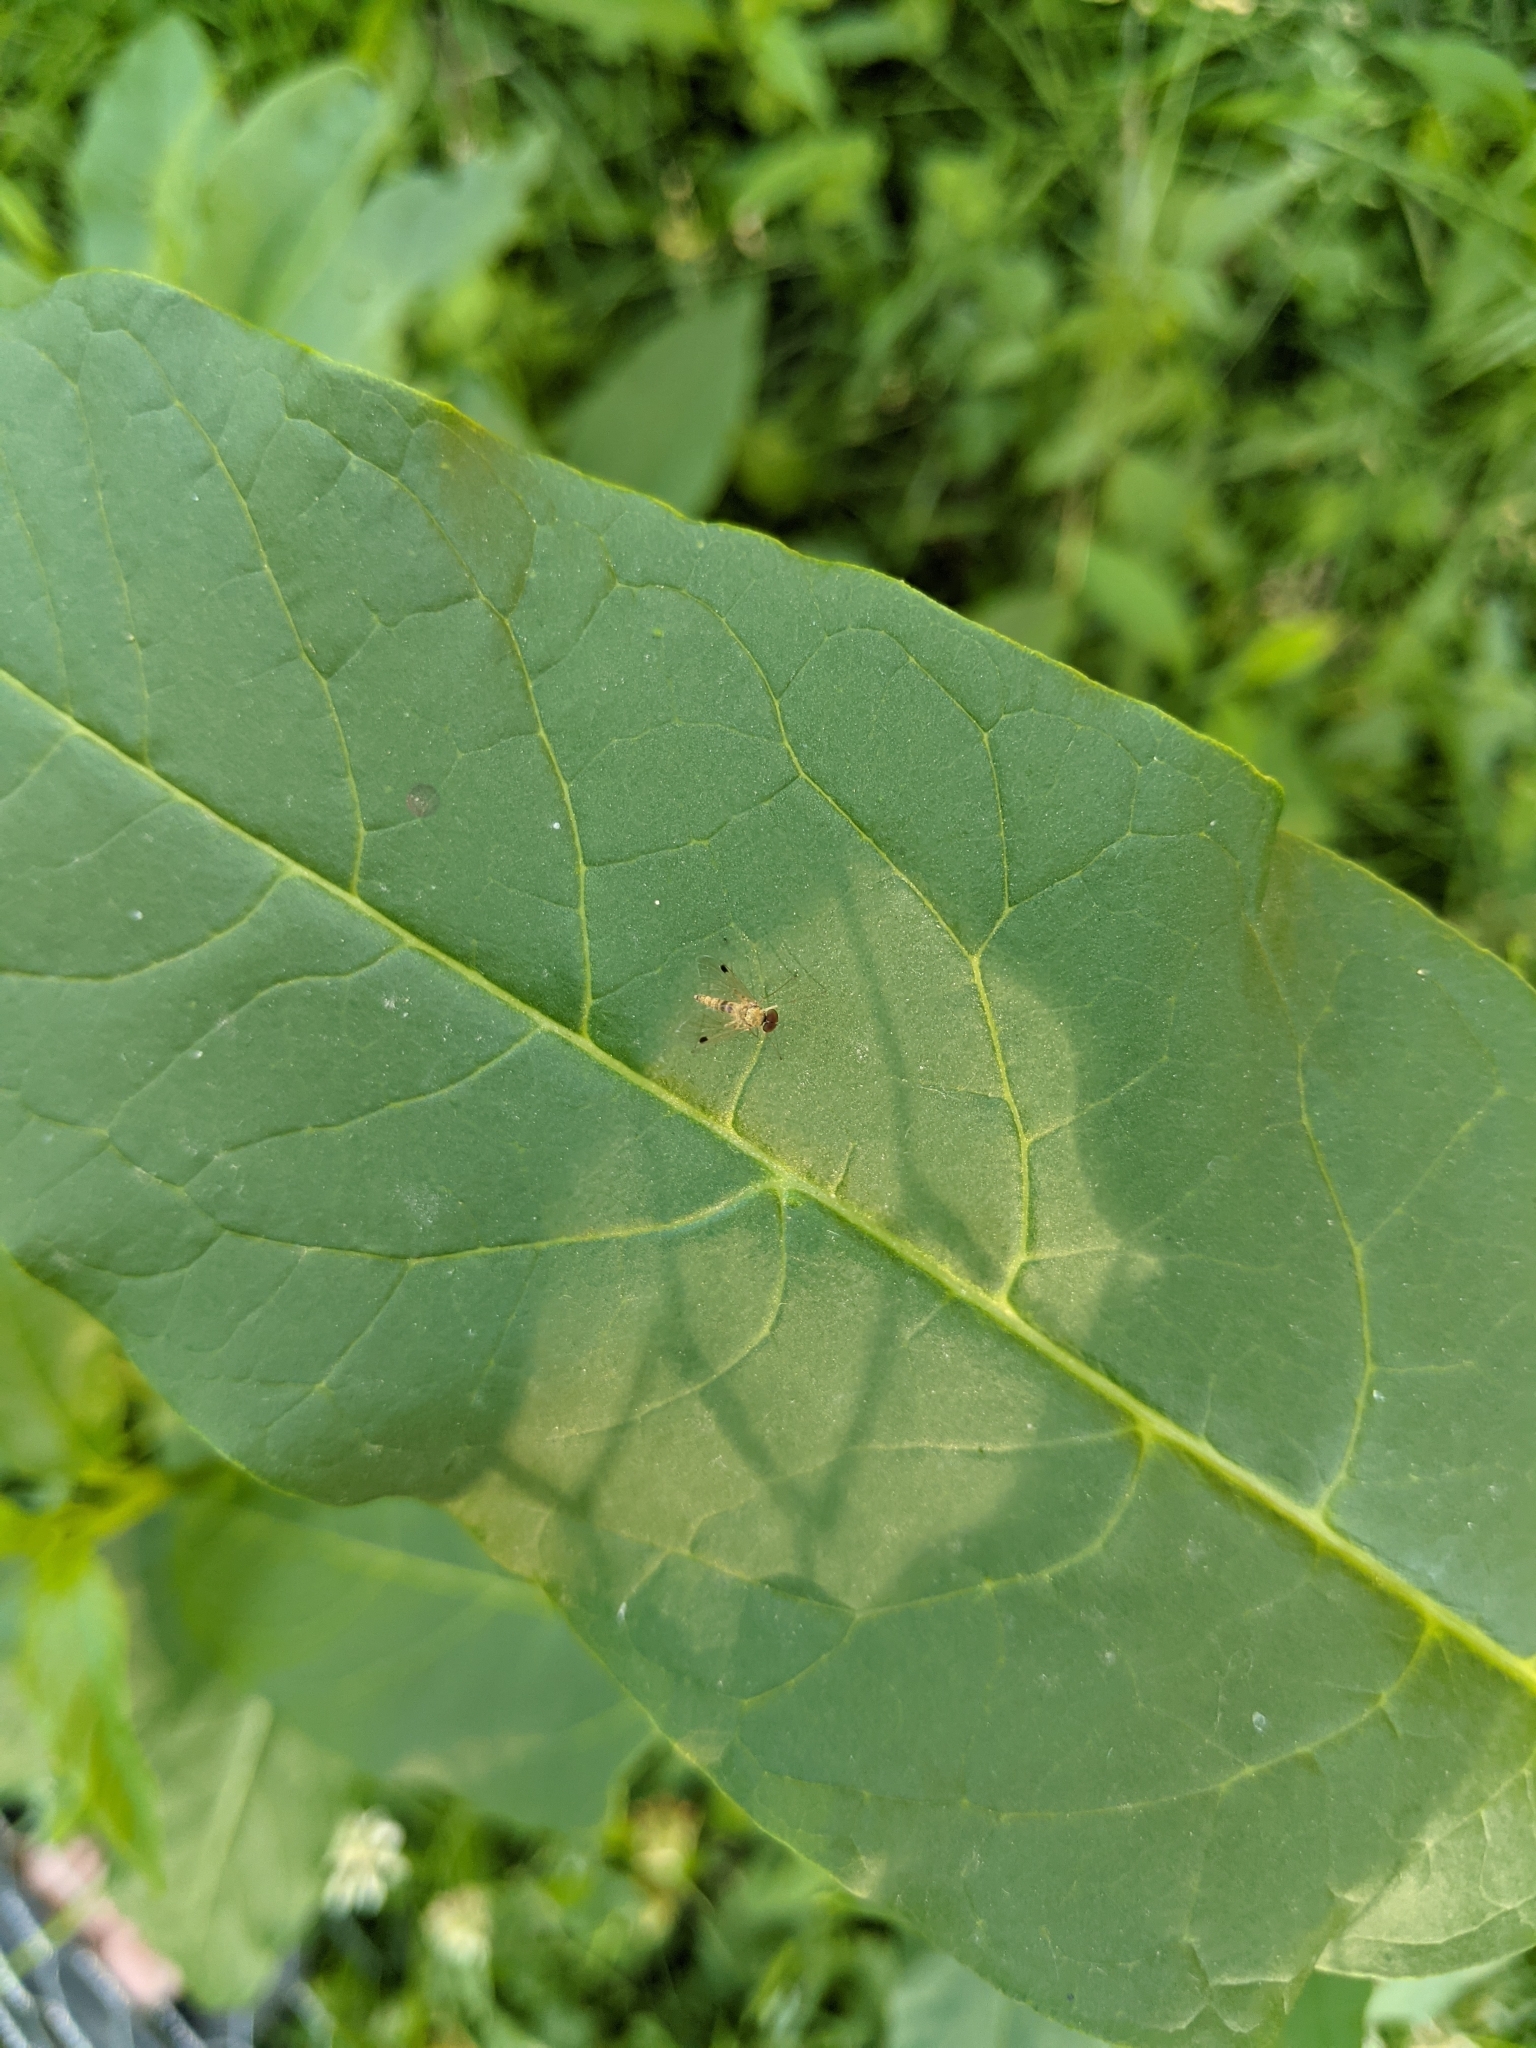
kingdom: Animalia
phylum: Arthropoda
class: Insecta
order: Diptera
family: Rhagionidae
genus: Chrysopilus
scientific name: Chrysopilus modestus
